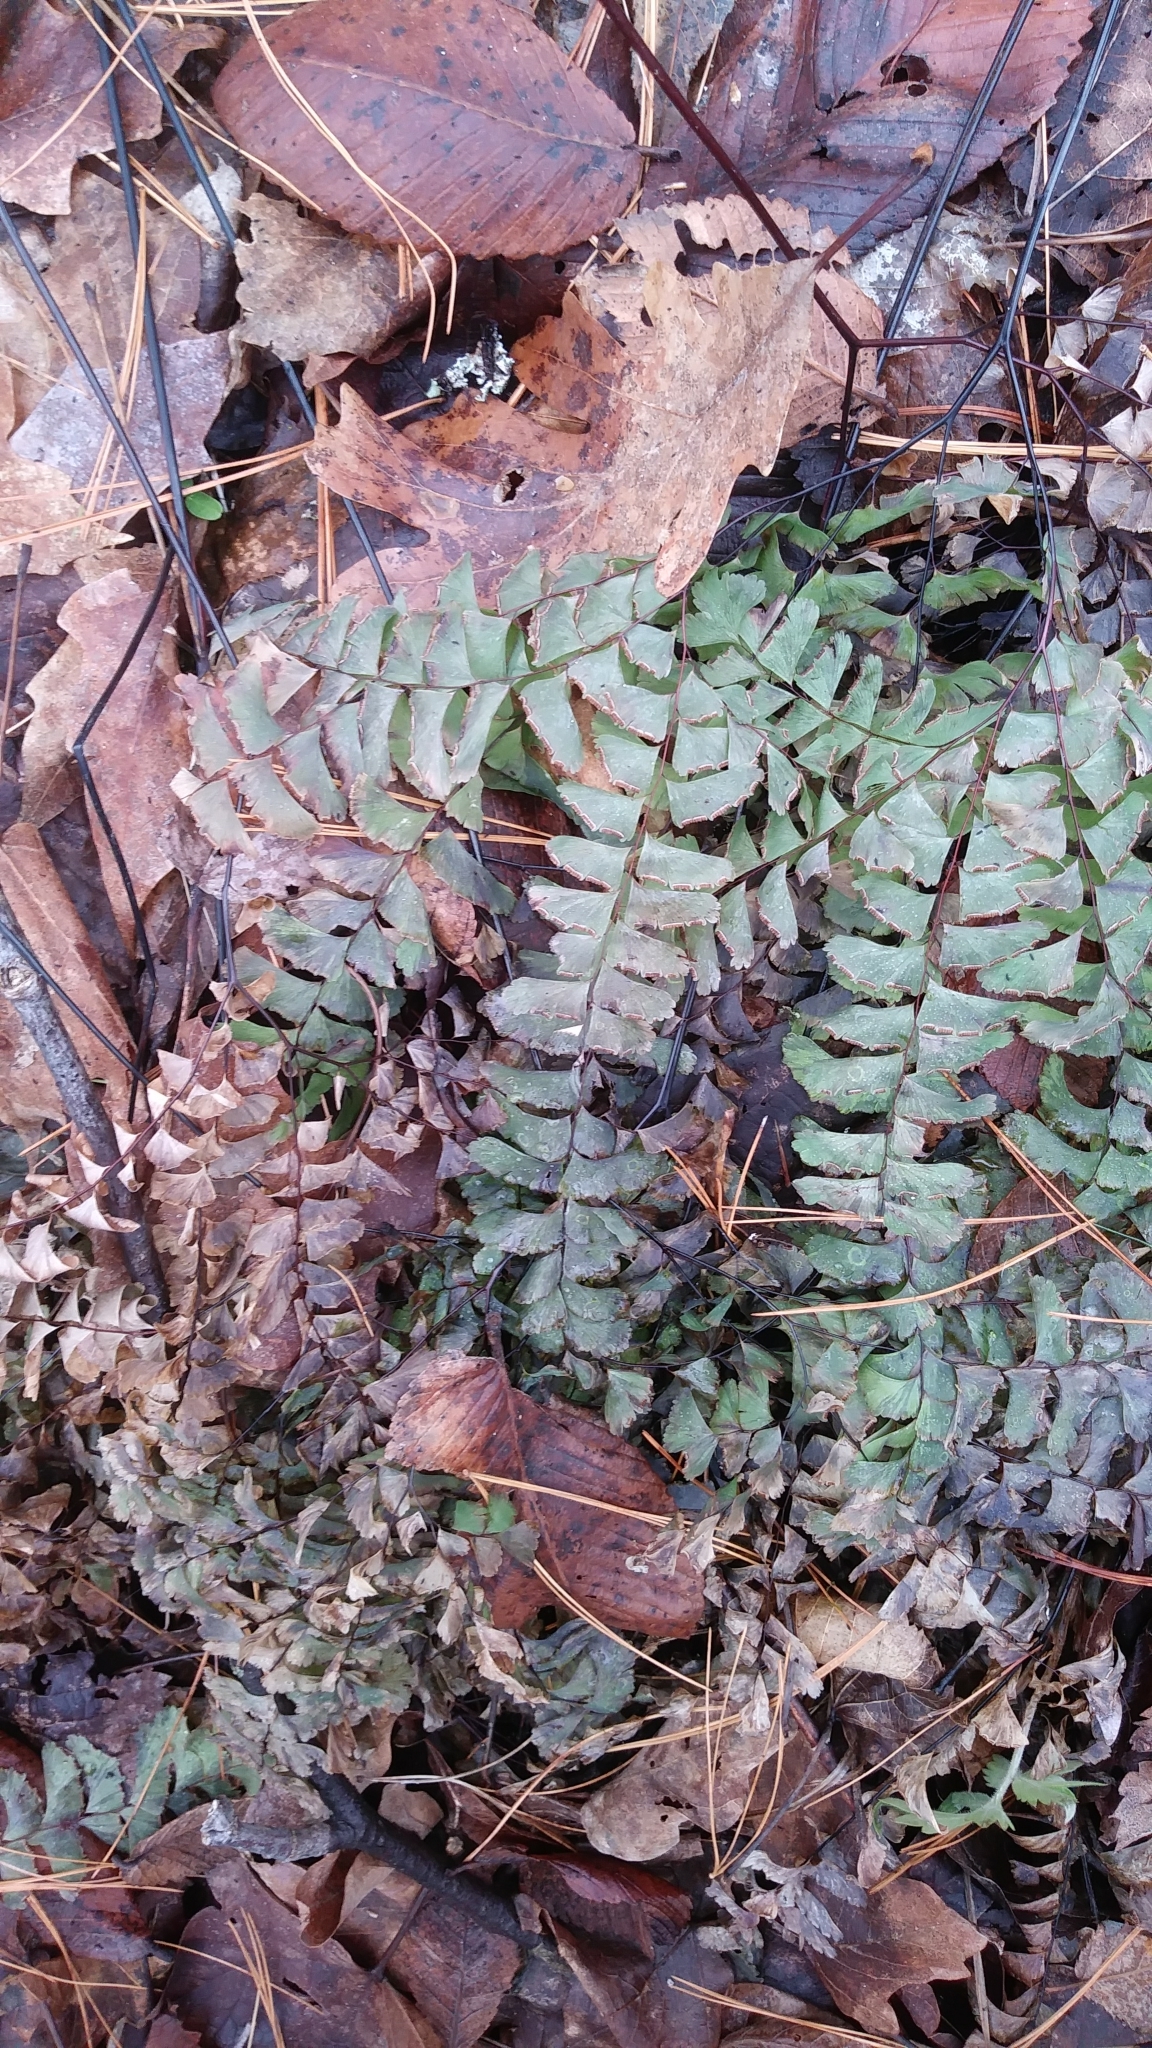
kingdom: Plantae
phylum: Tracheophyta
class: Polypodiopsida
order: Polypodiales
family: Pteridaceae
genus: Adiantum
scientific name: Adiantum pedatum
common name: Five-finger fern
